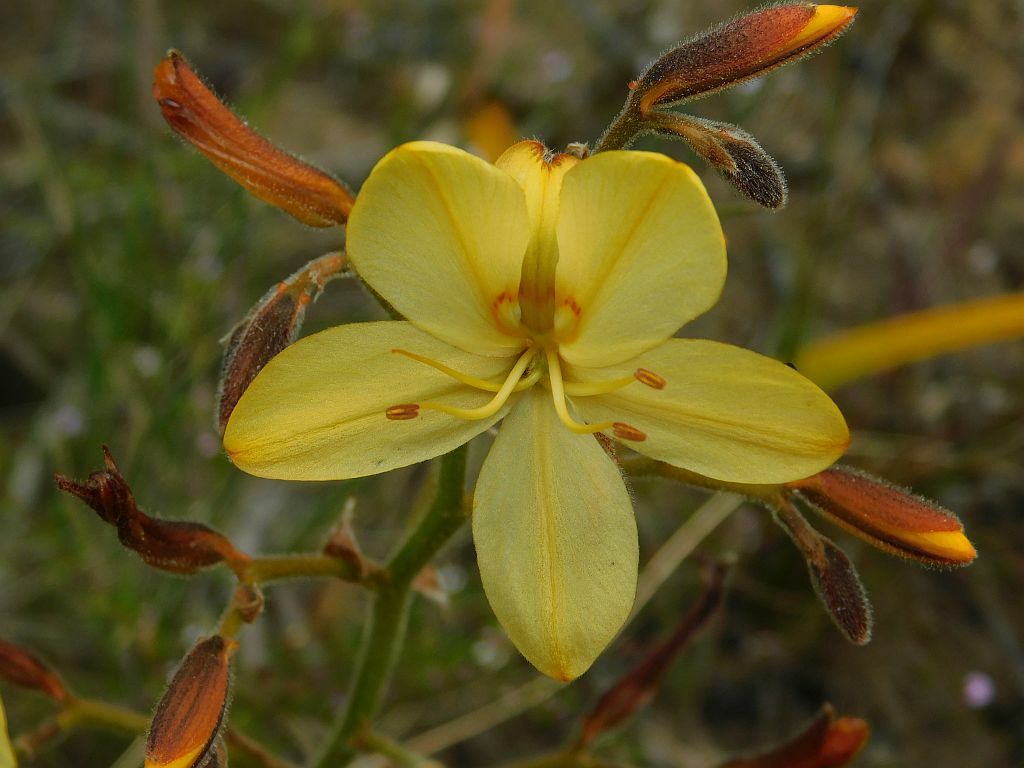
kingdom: Plantae
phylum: Tracheophyta
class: Liliopsida
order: Commelinales
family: Haemodoraceae
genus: Wachendorfia
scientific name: Wachendorfia paniculata
